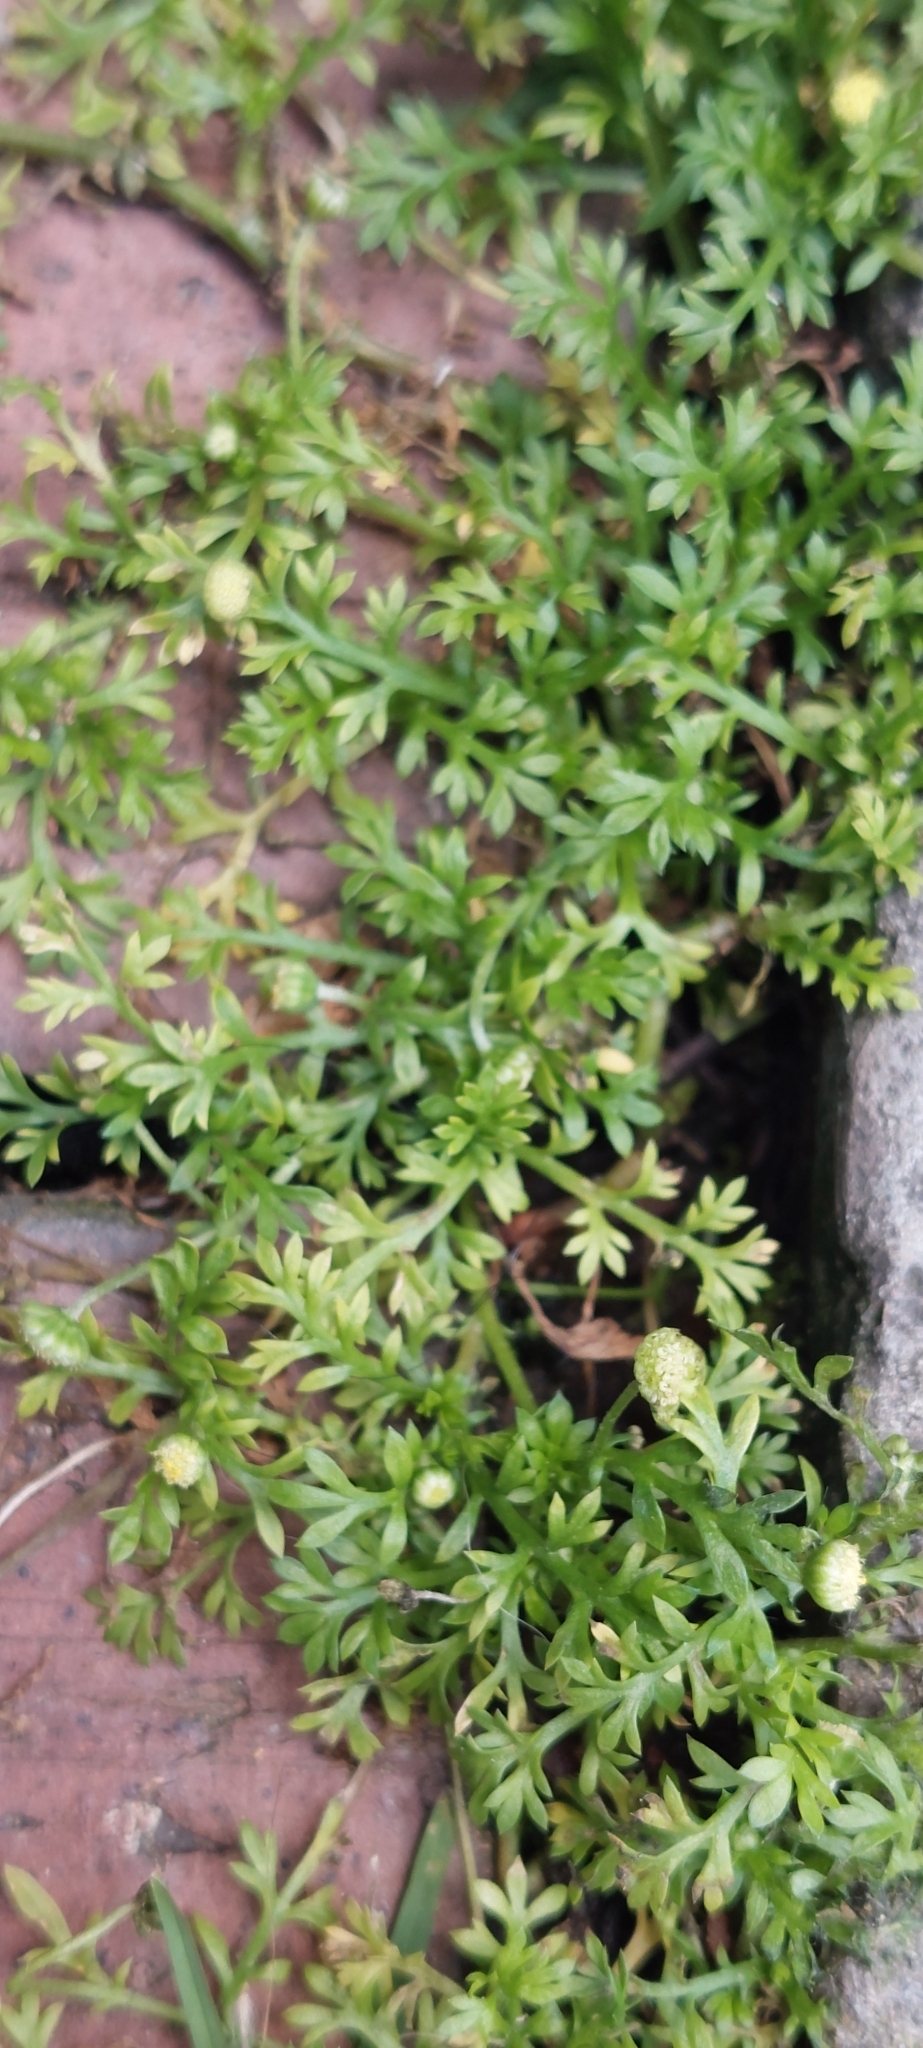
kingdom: Plantae
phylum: Tracheophyta
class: Magnoliopsida
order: Asterales
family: Asteraceae
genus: Cotula
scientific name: Cotula australis
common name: Australian waterbuttons
